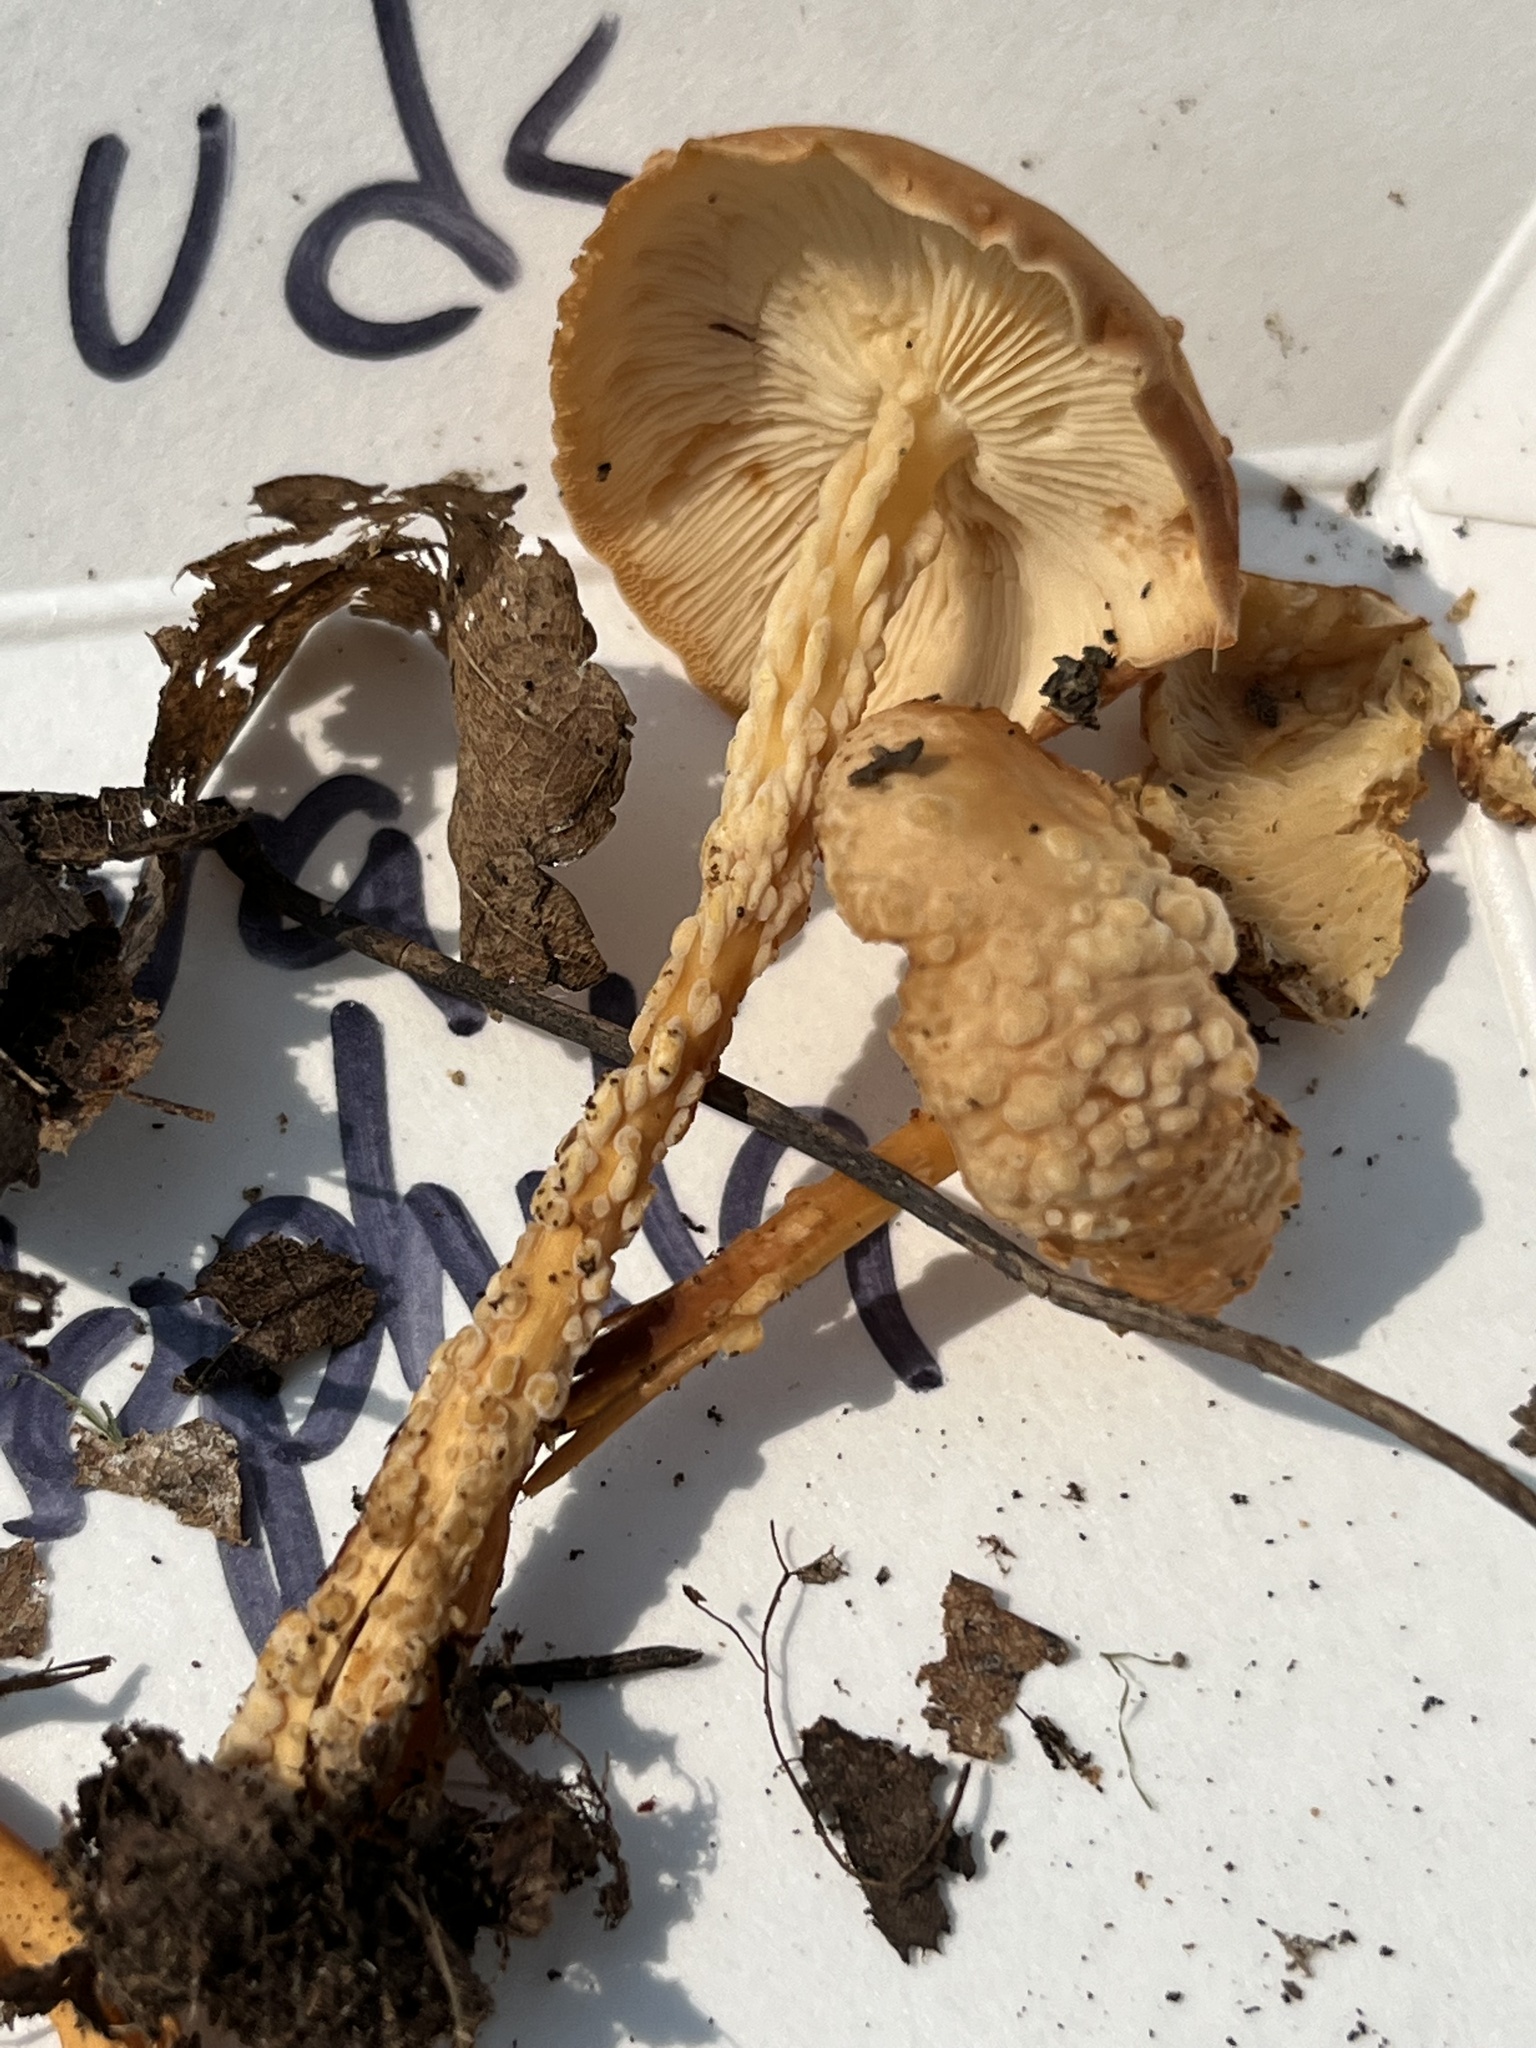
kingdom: Fungi
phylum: Basidiomycota
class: Tremellomycetes
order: Filobasidiales
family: Filobasidiaceae
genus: Syzygospora
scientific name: Syzygospora mycetophila
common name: Collybia clouds
